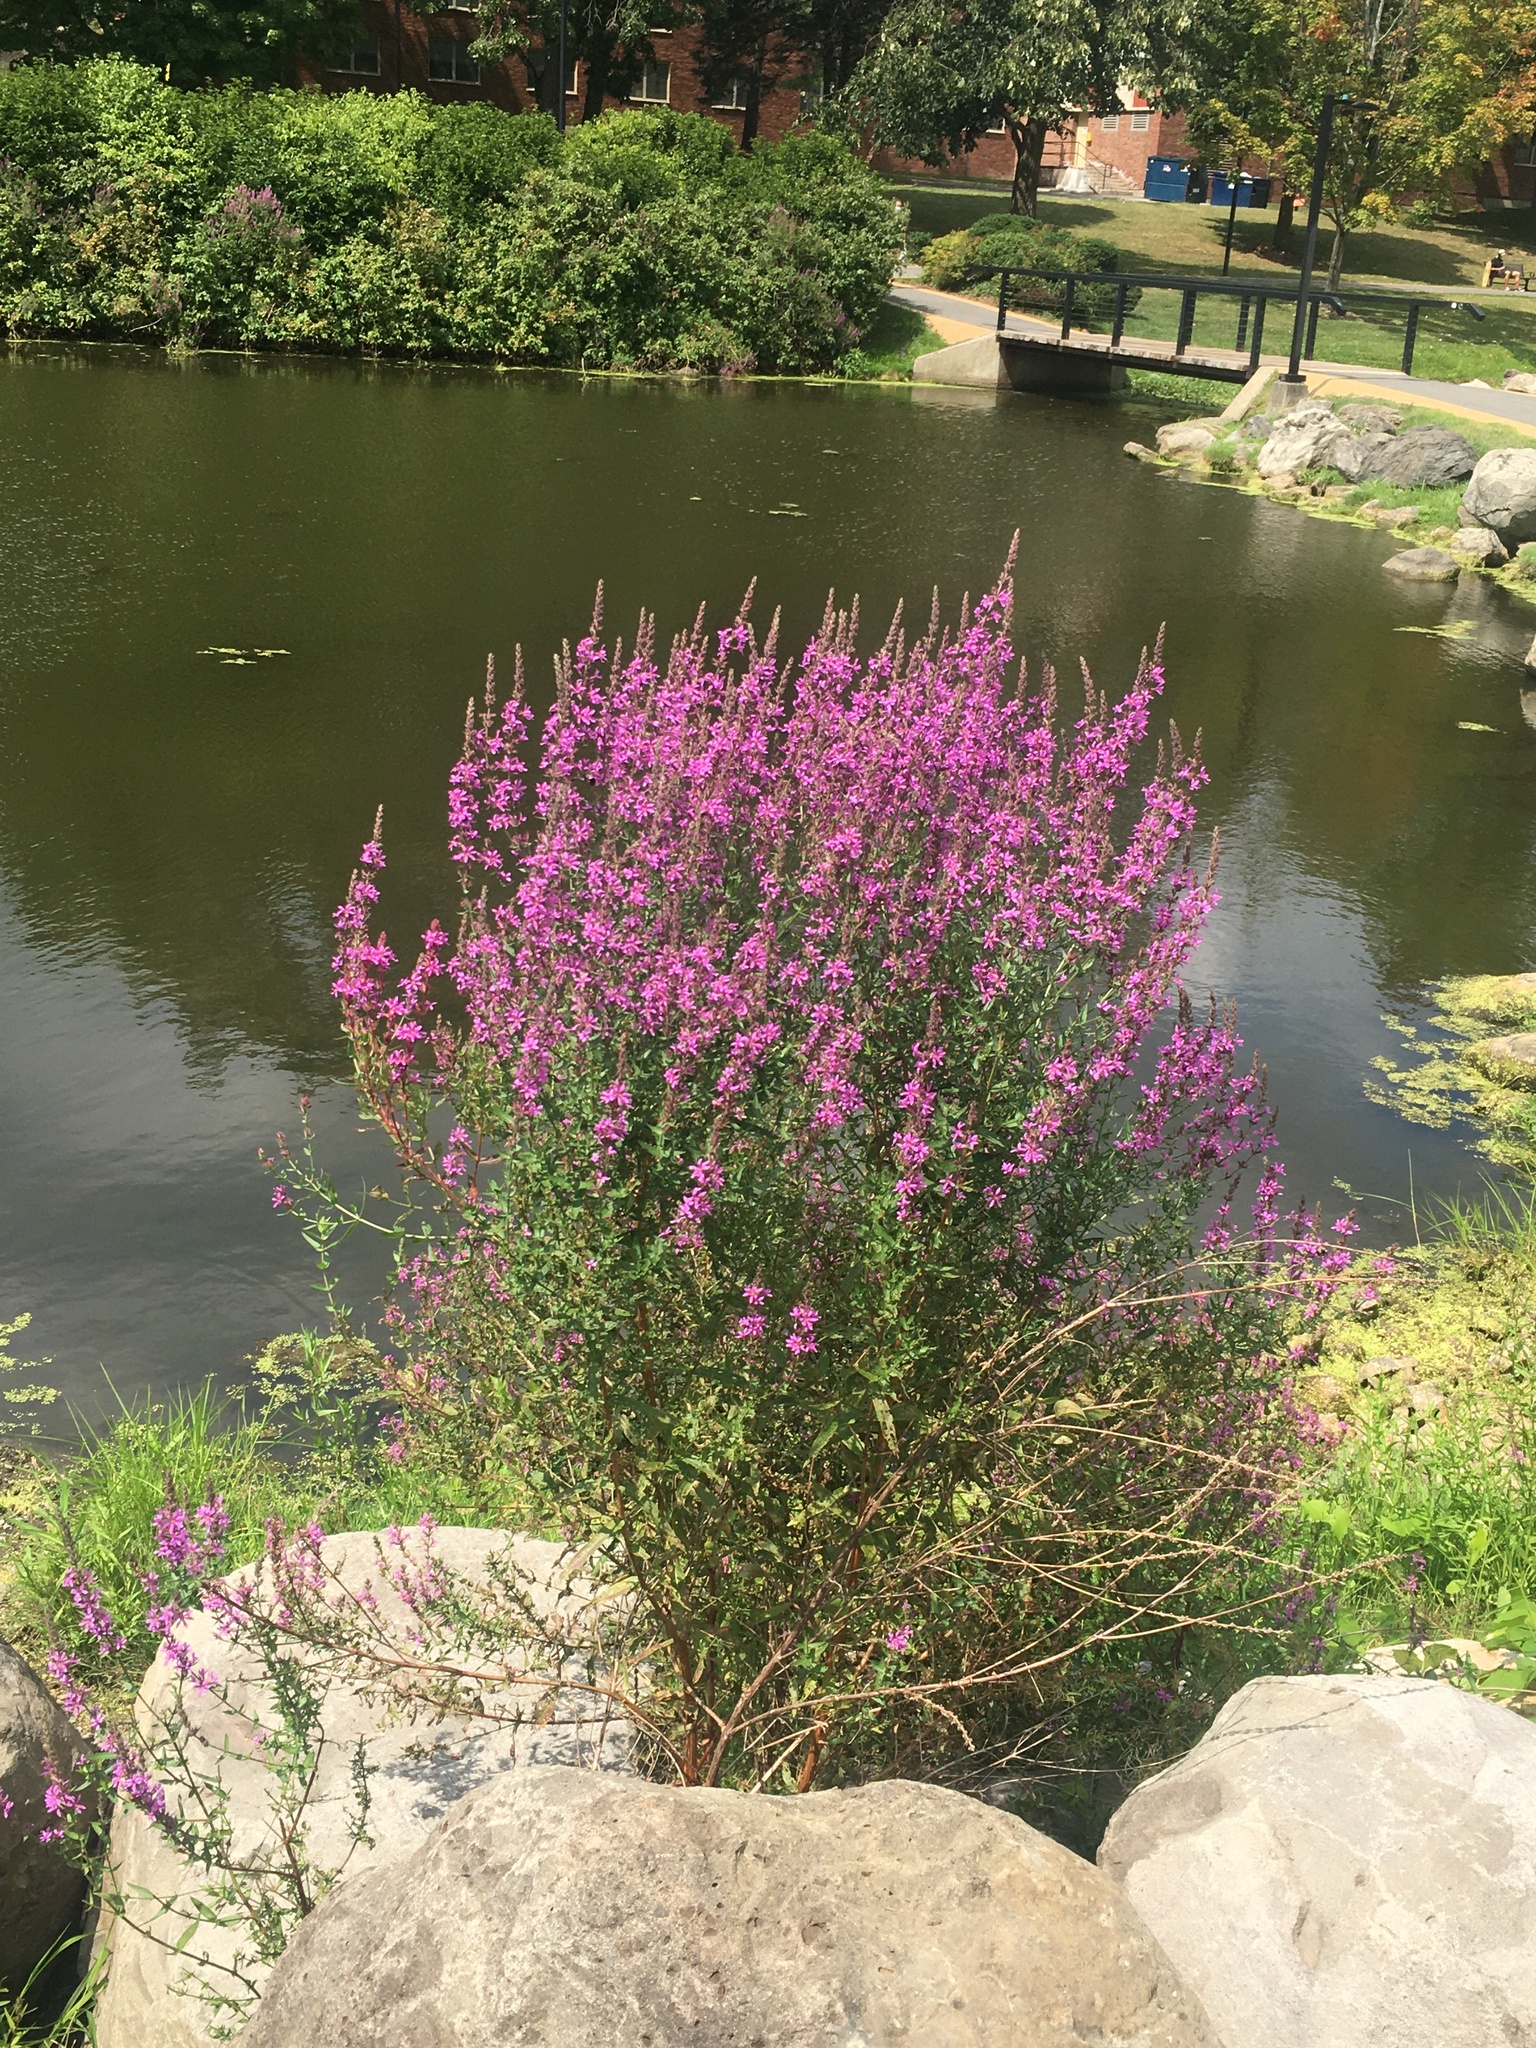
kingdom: Plantae
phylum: Tracheophyta
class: Magnoliopsida
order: Myrtales
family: Lythraceae
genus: Lythrum
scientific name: Lythrum salicaria
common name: Purple loosestrife
